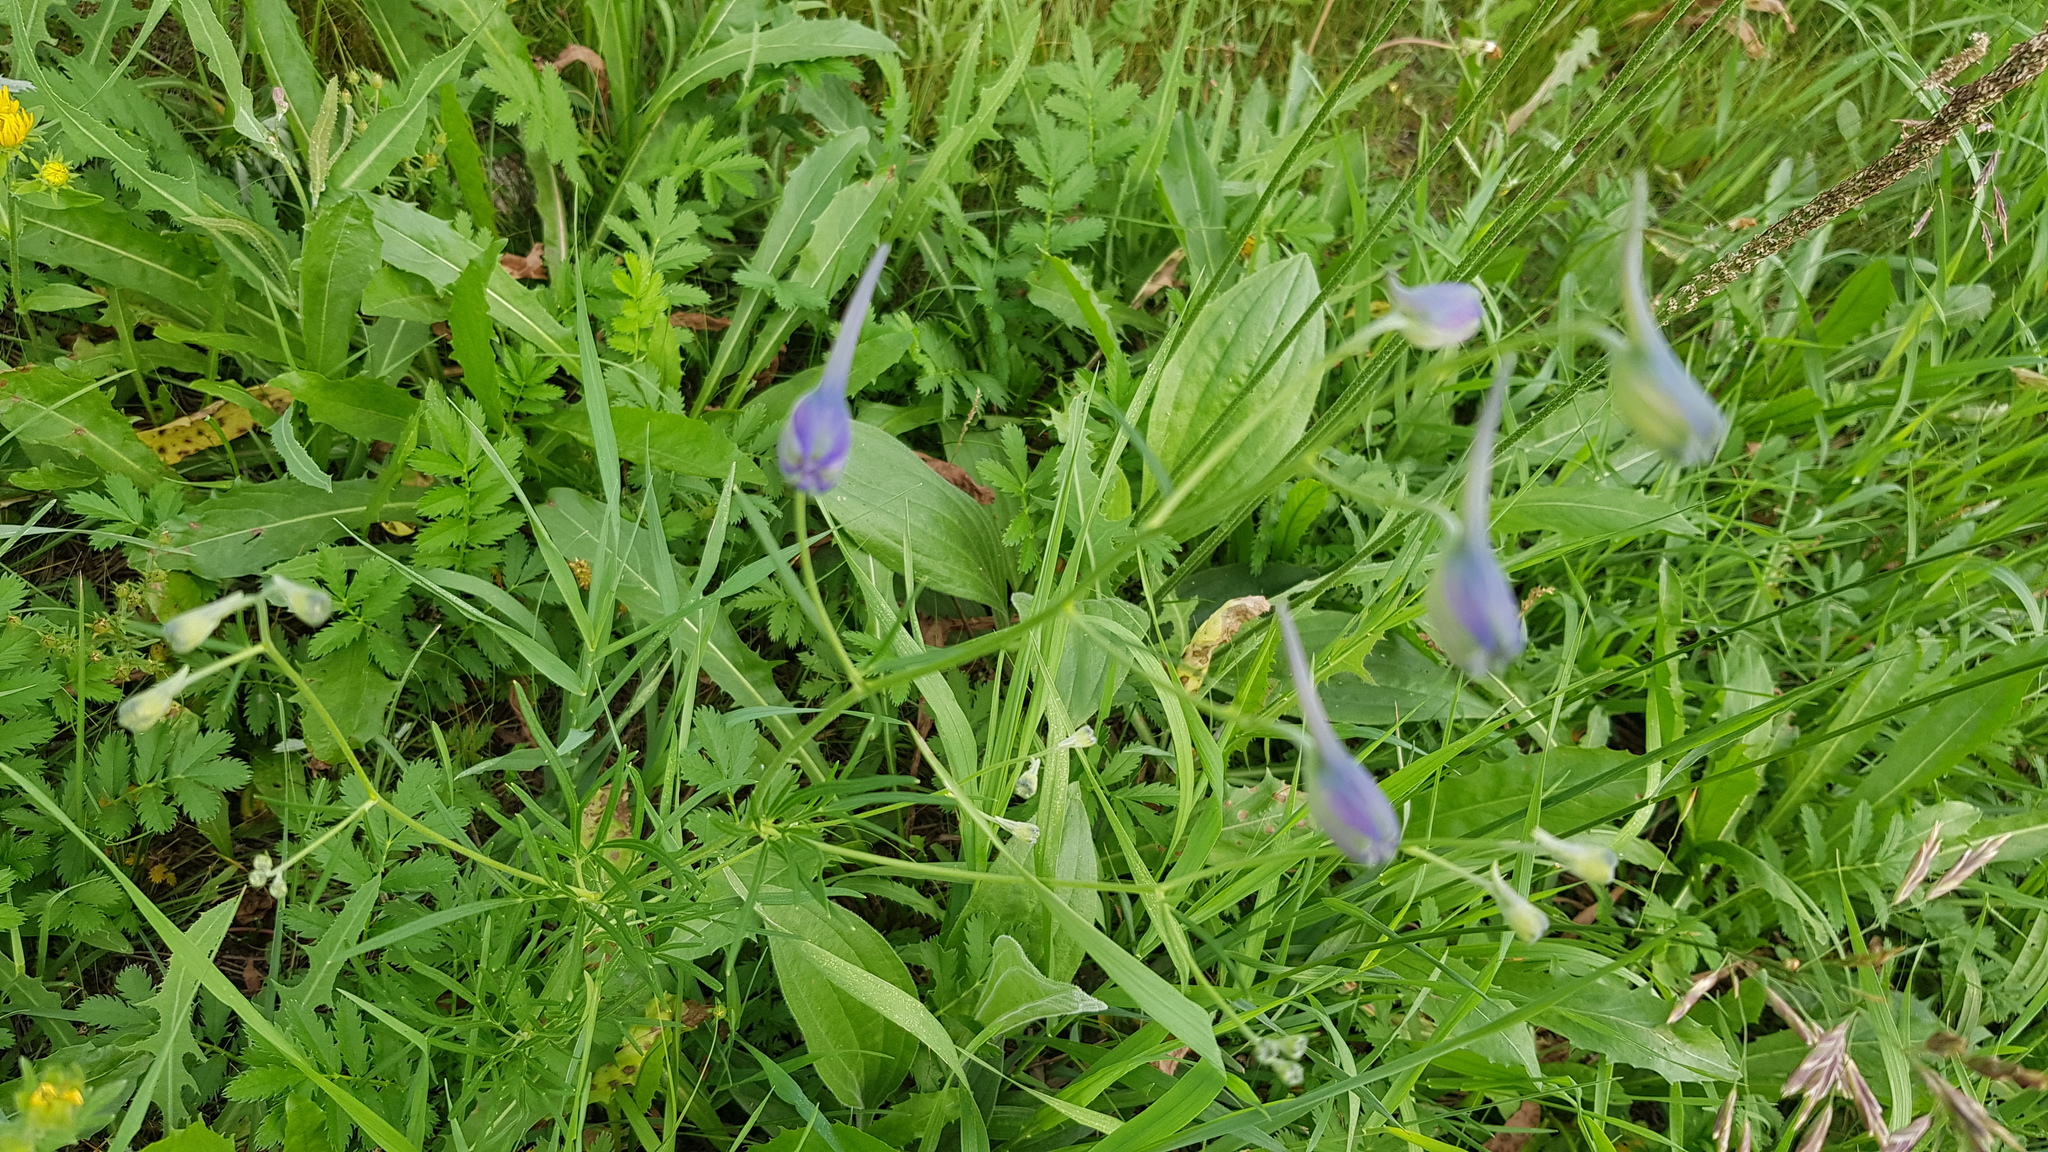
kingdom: Plantae
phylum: Tracheophyta
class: Magnoliopsida
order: Lamiales
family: Plantaginaceae
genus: Plantago
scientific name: Plantago media
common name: Hoary plantain
